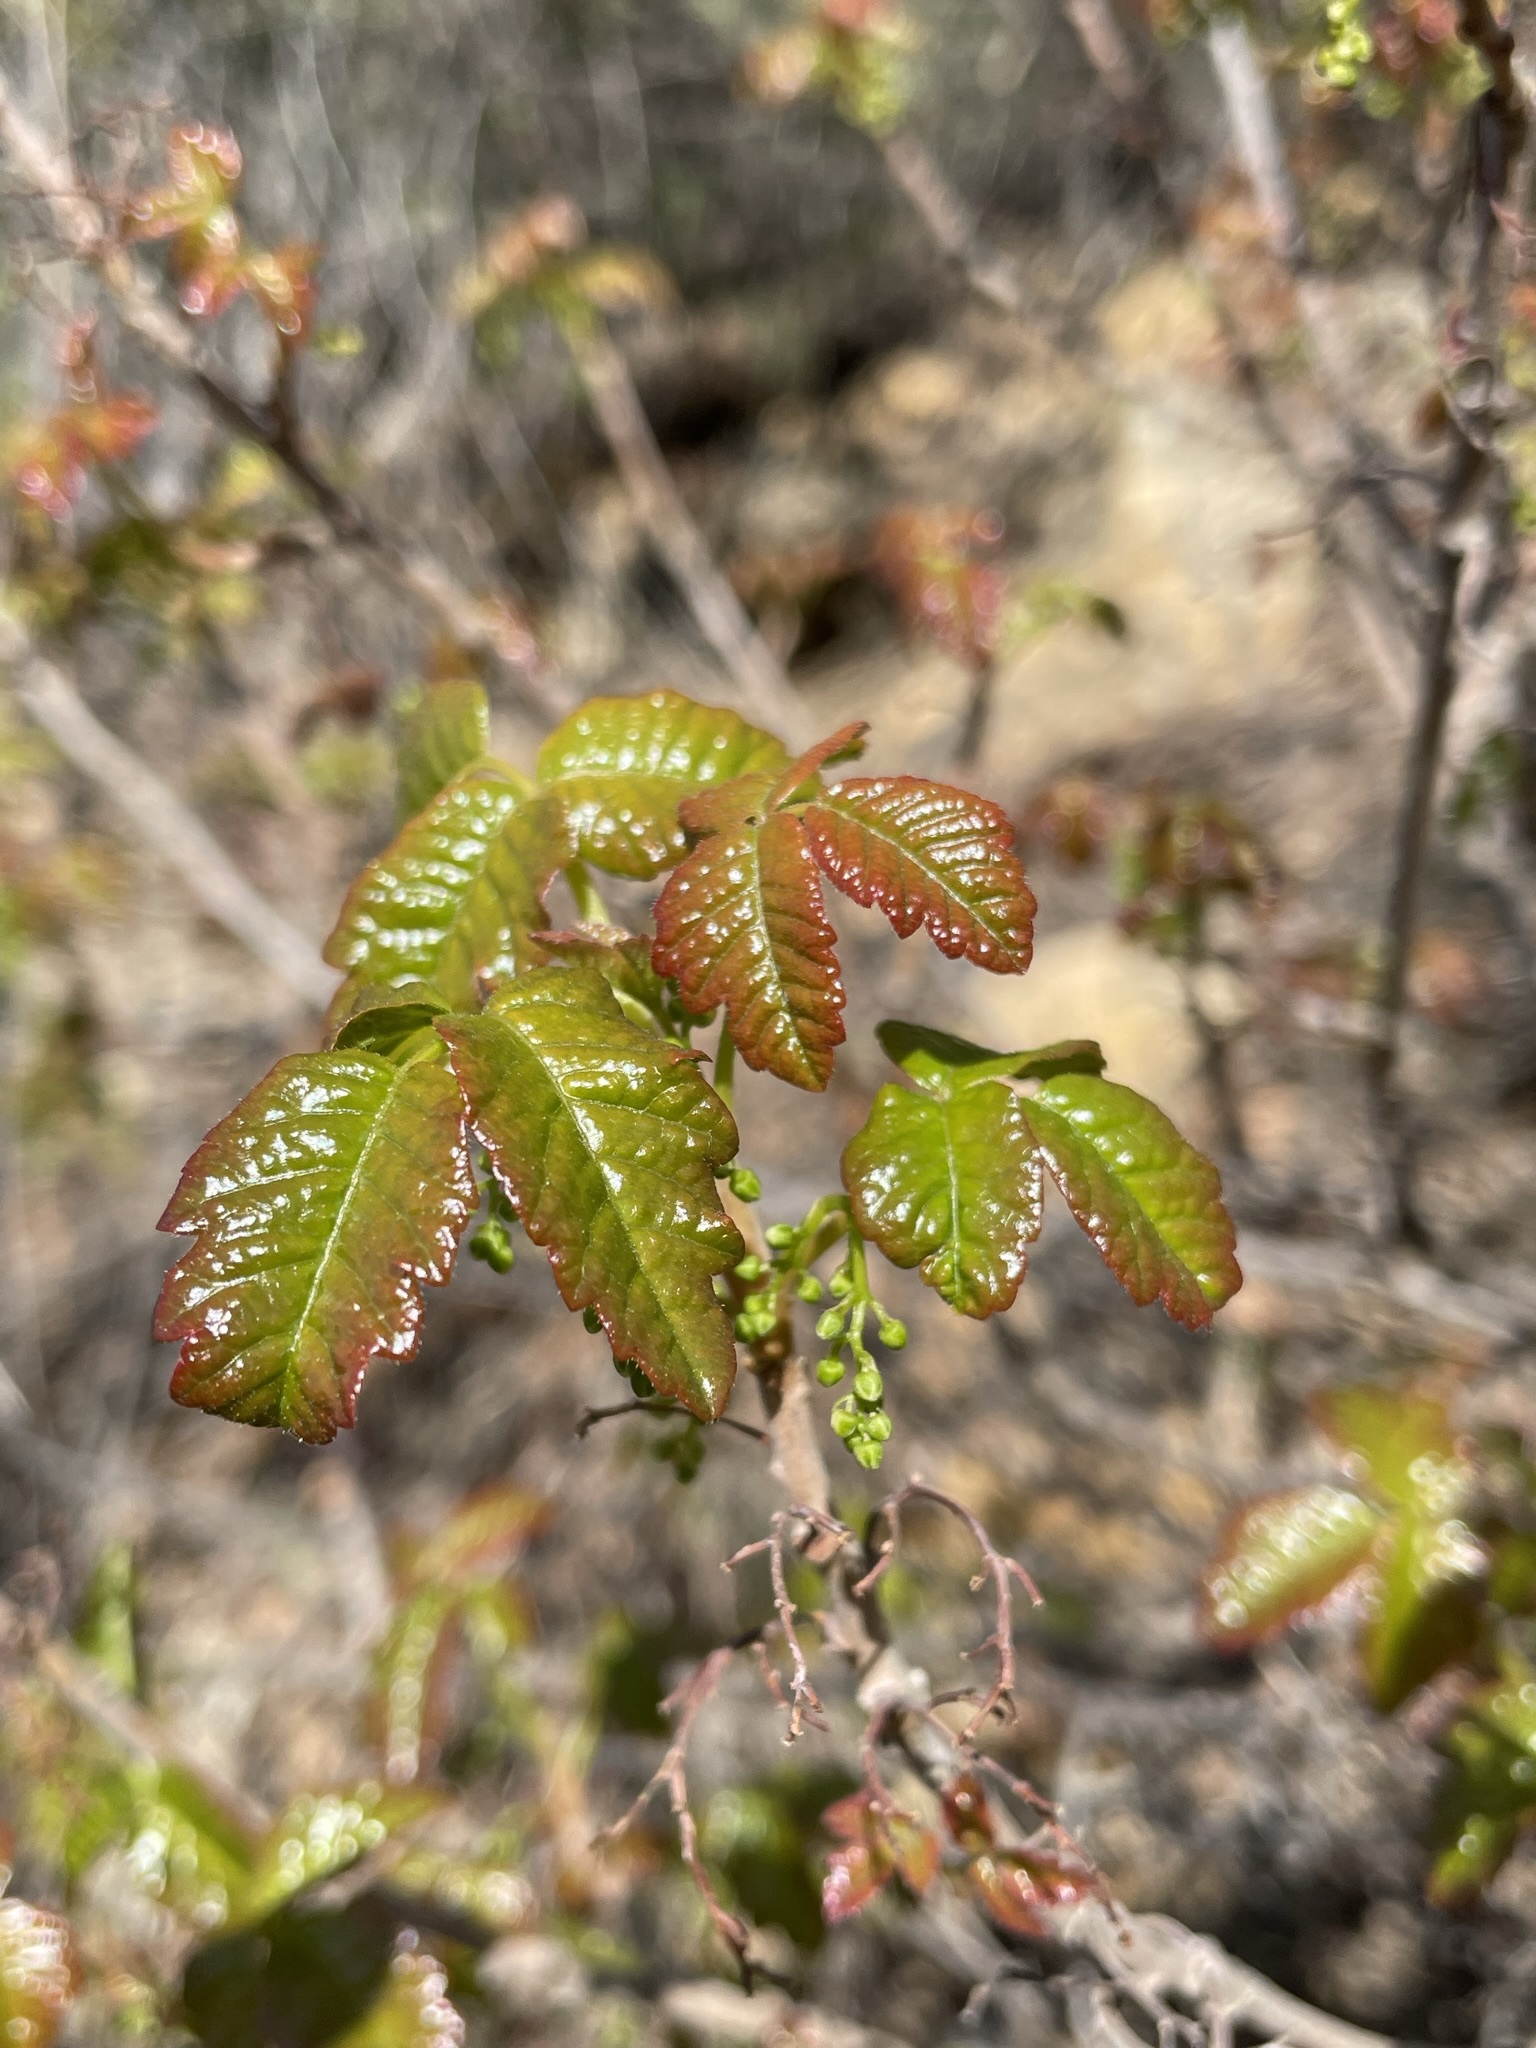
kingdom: Plantae
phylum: Tracheophyta
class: Magnoliopsida
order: Sapindales
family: Anacardiaceae
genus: Toxicodendron
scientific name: Toxicodendron diversilobum
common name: Pacific poison-oak
